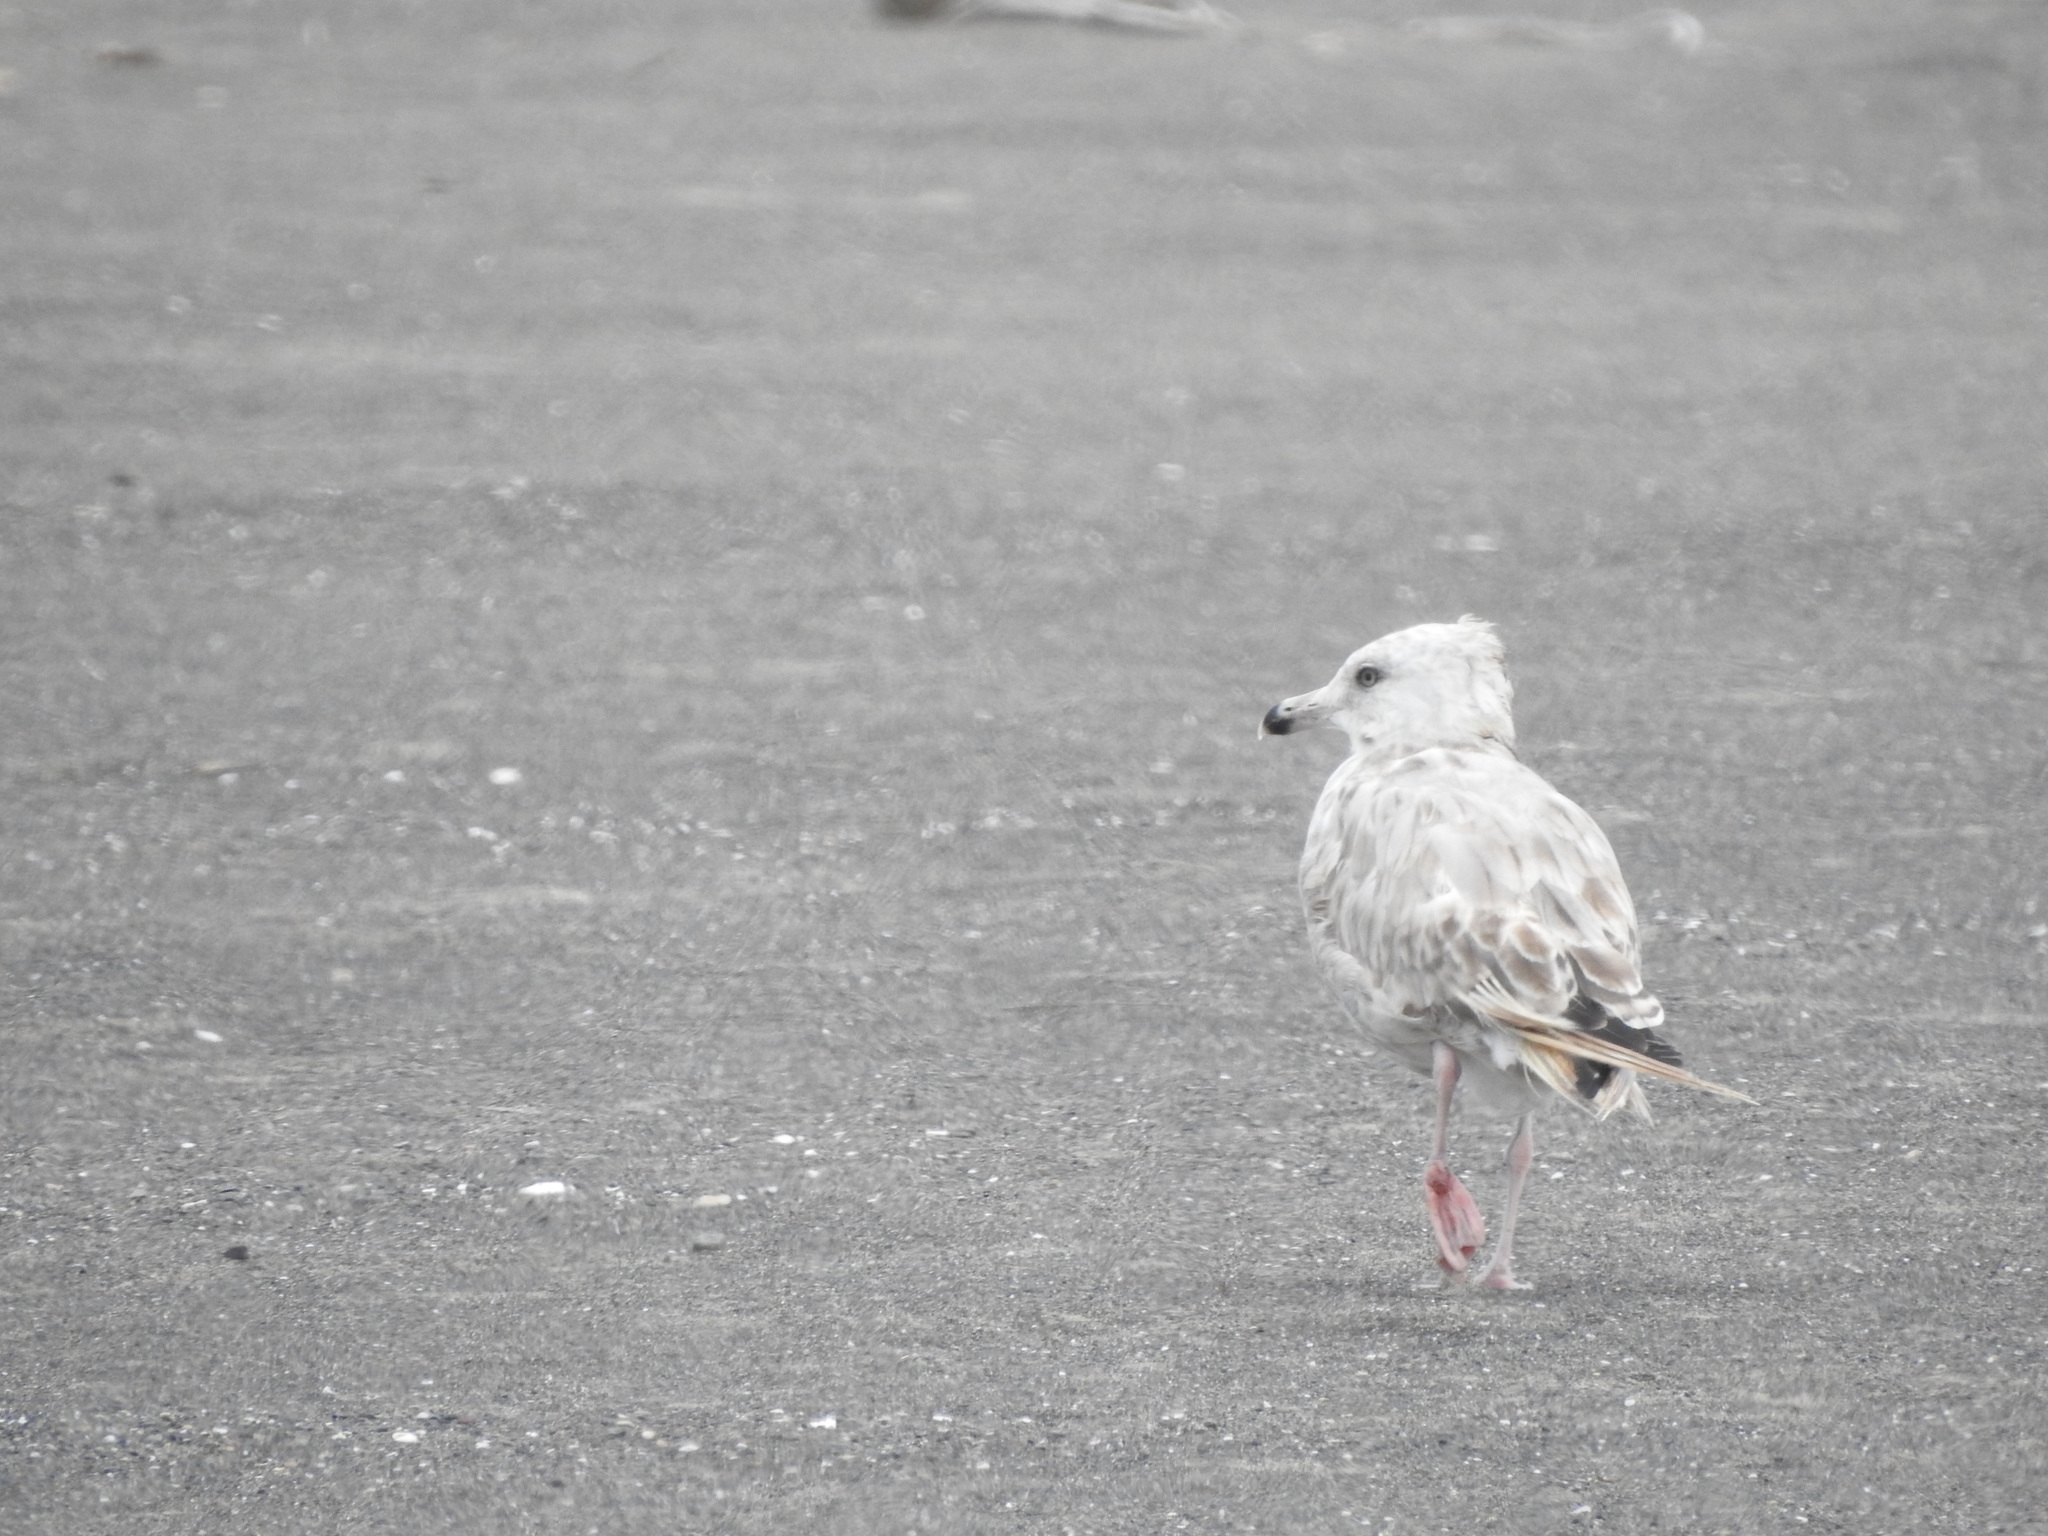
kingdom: Animalia
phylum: Chordata
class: Aves
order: Charadriiformes
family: Laridae
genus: Larus
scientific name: Larus argentatus
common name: Herring gull
